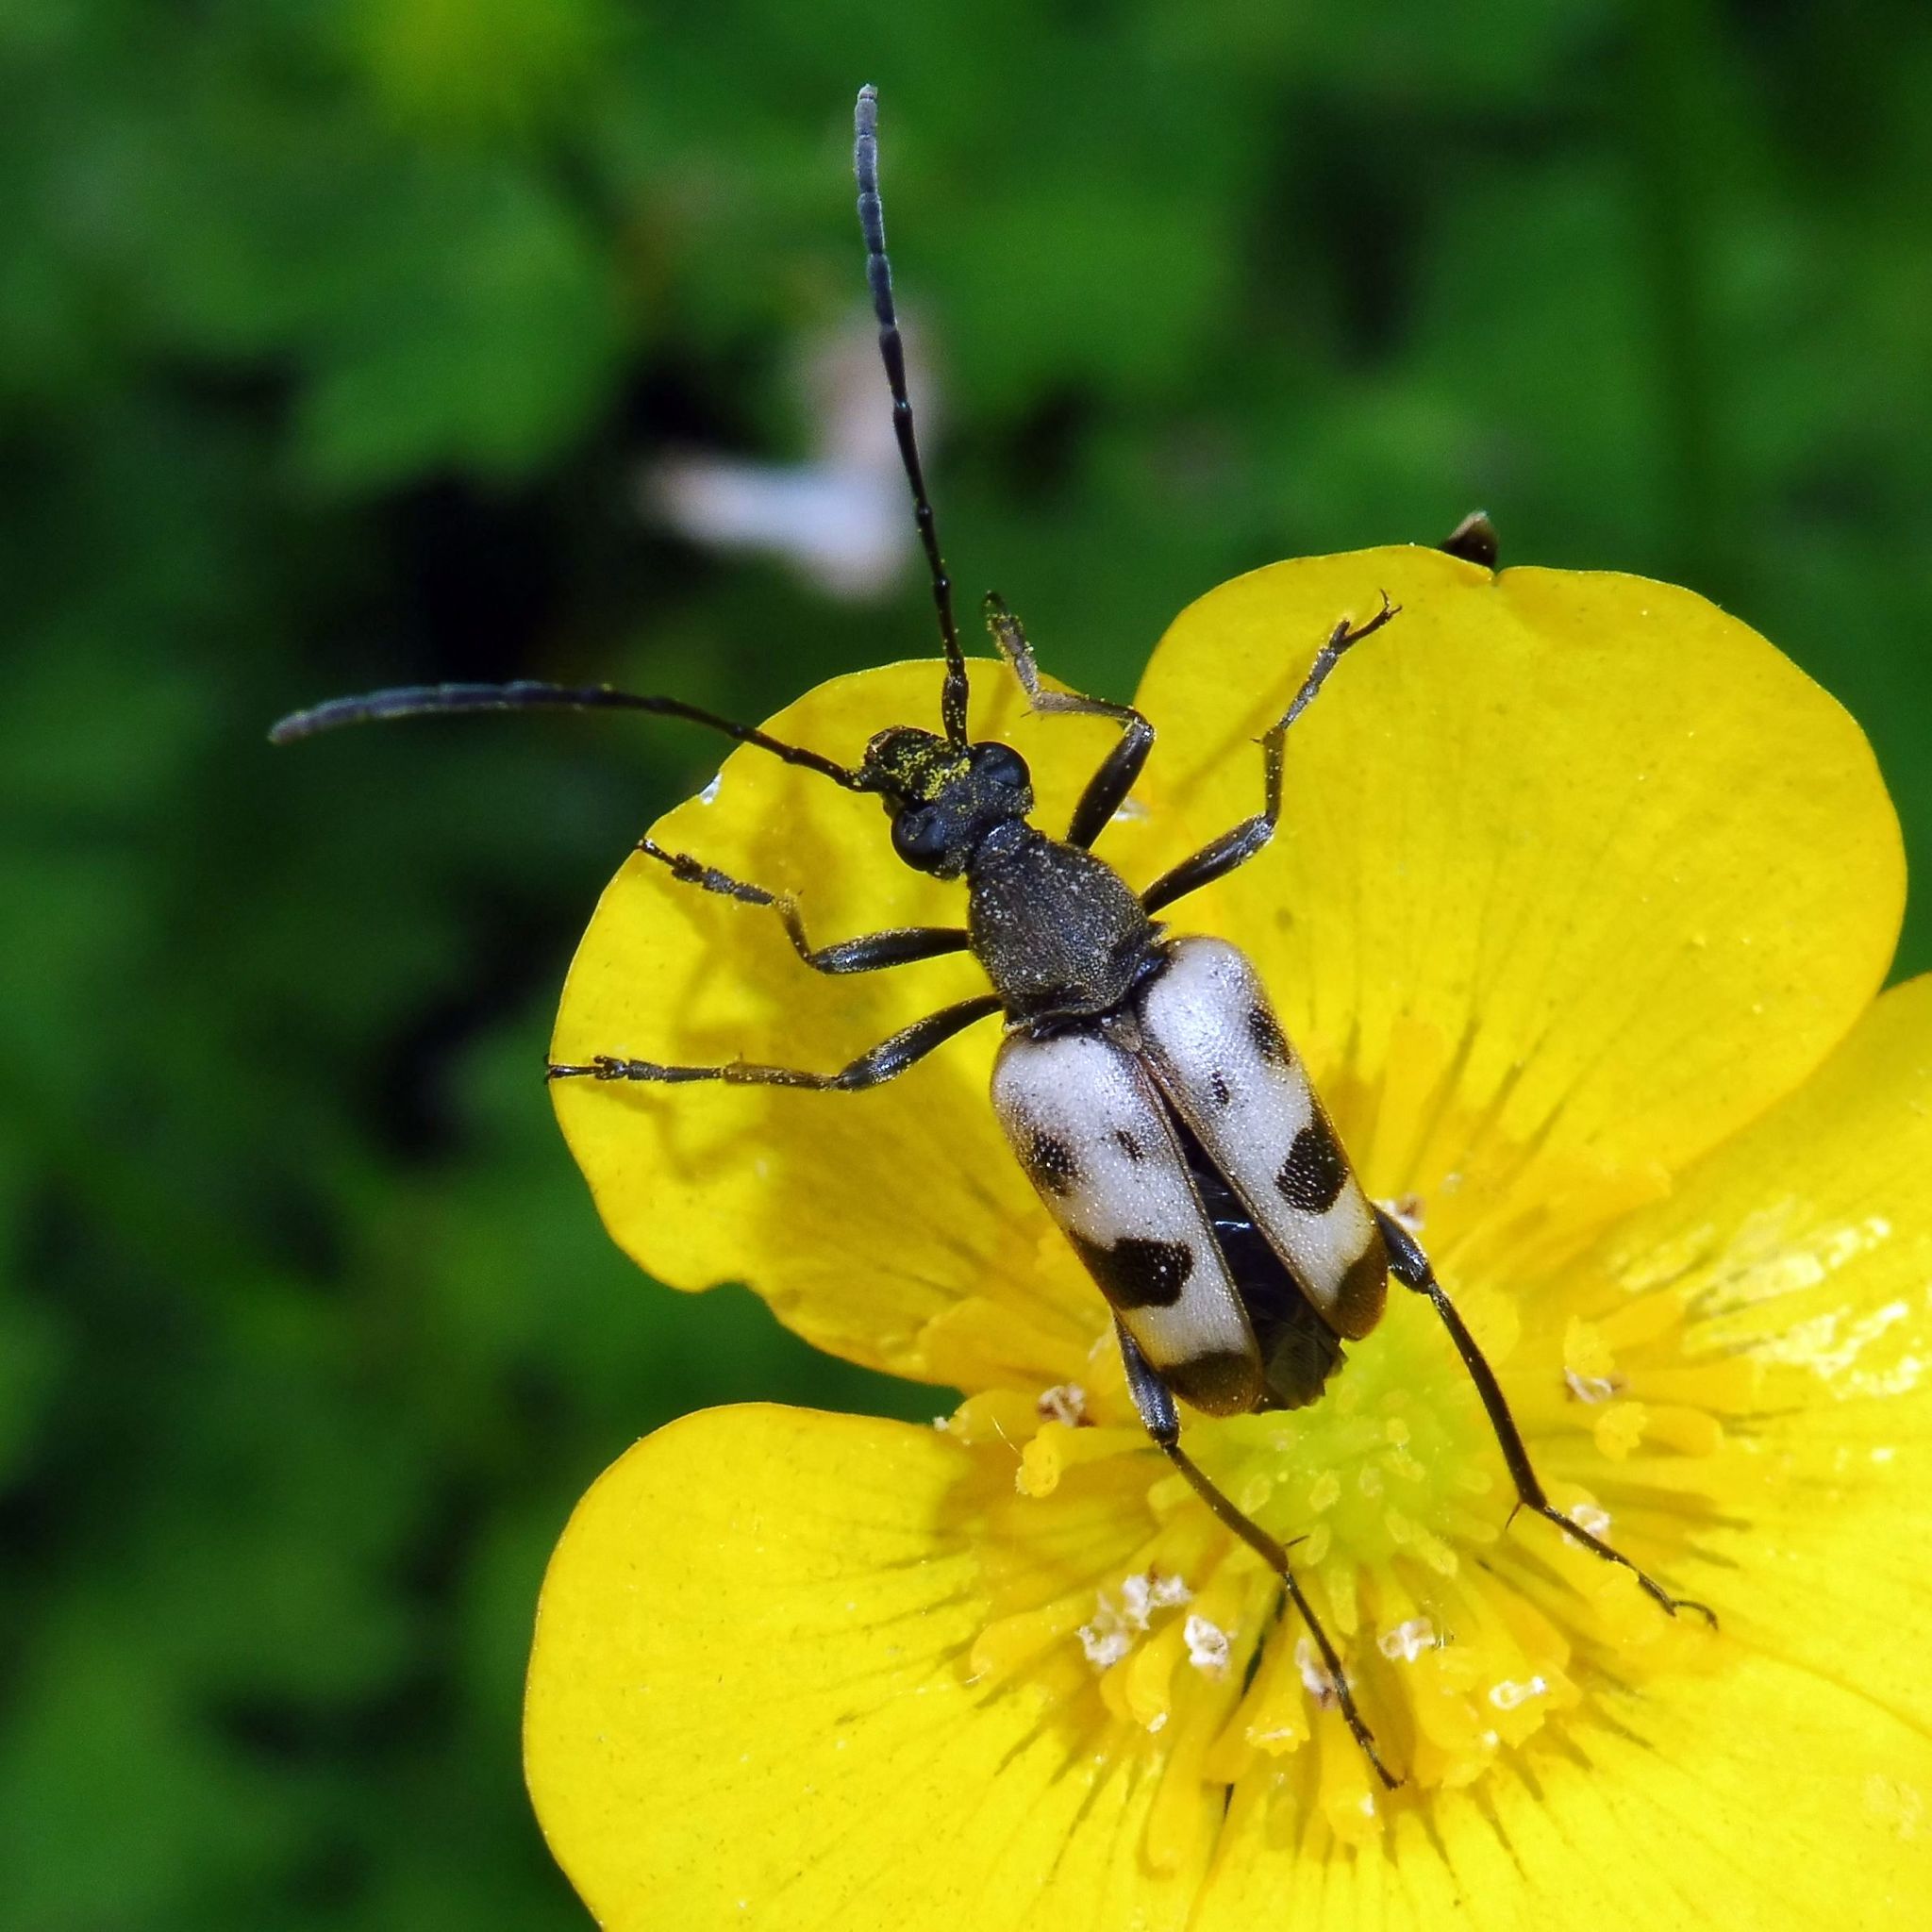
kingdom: Animalia
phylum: Arthropoda
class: Insecta
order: Coleoptera
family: Cerambycidae
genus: Pachytodes
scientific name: Pachytodes cerambyciformis
